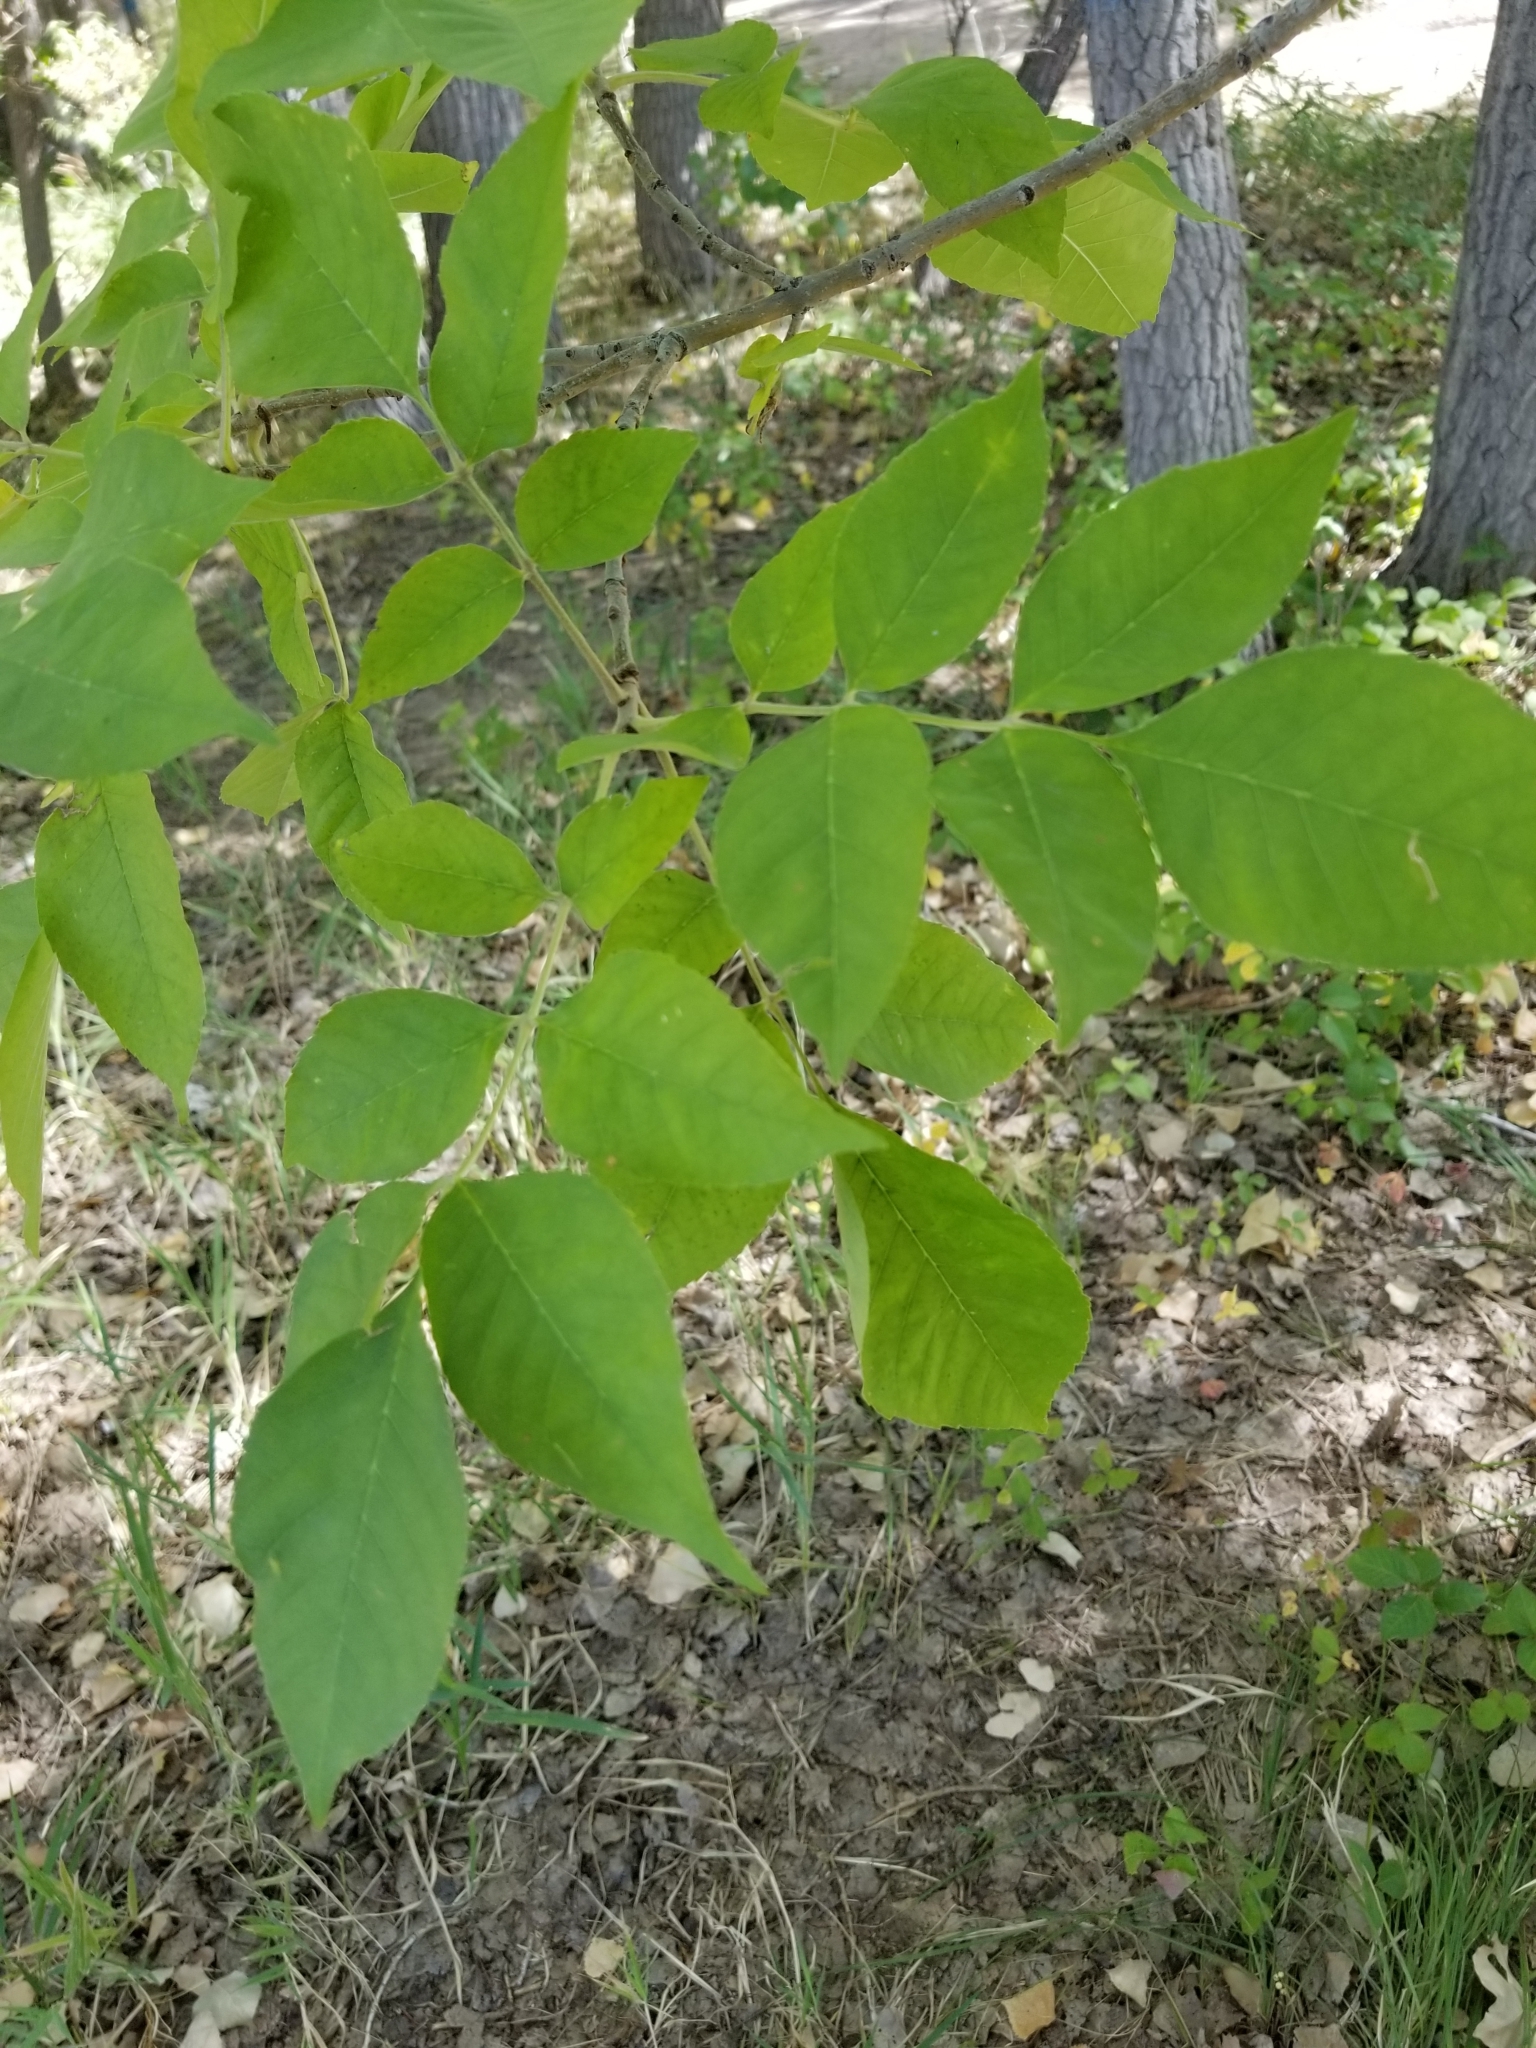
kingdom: Plantae
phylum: Tracheophyta
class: Magnoliopsida
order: Lamiales
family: Oleaceae
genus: Fraxinus
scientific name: Fraxinus pennsylvanica
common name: Green ash
